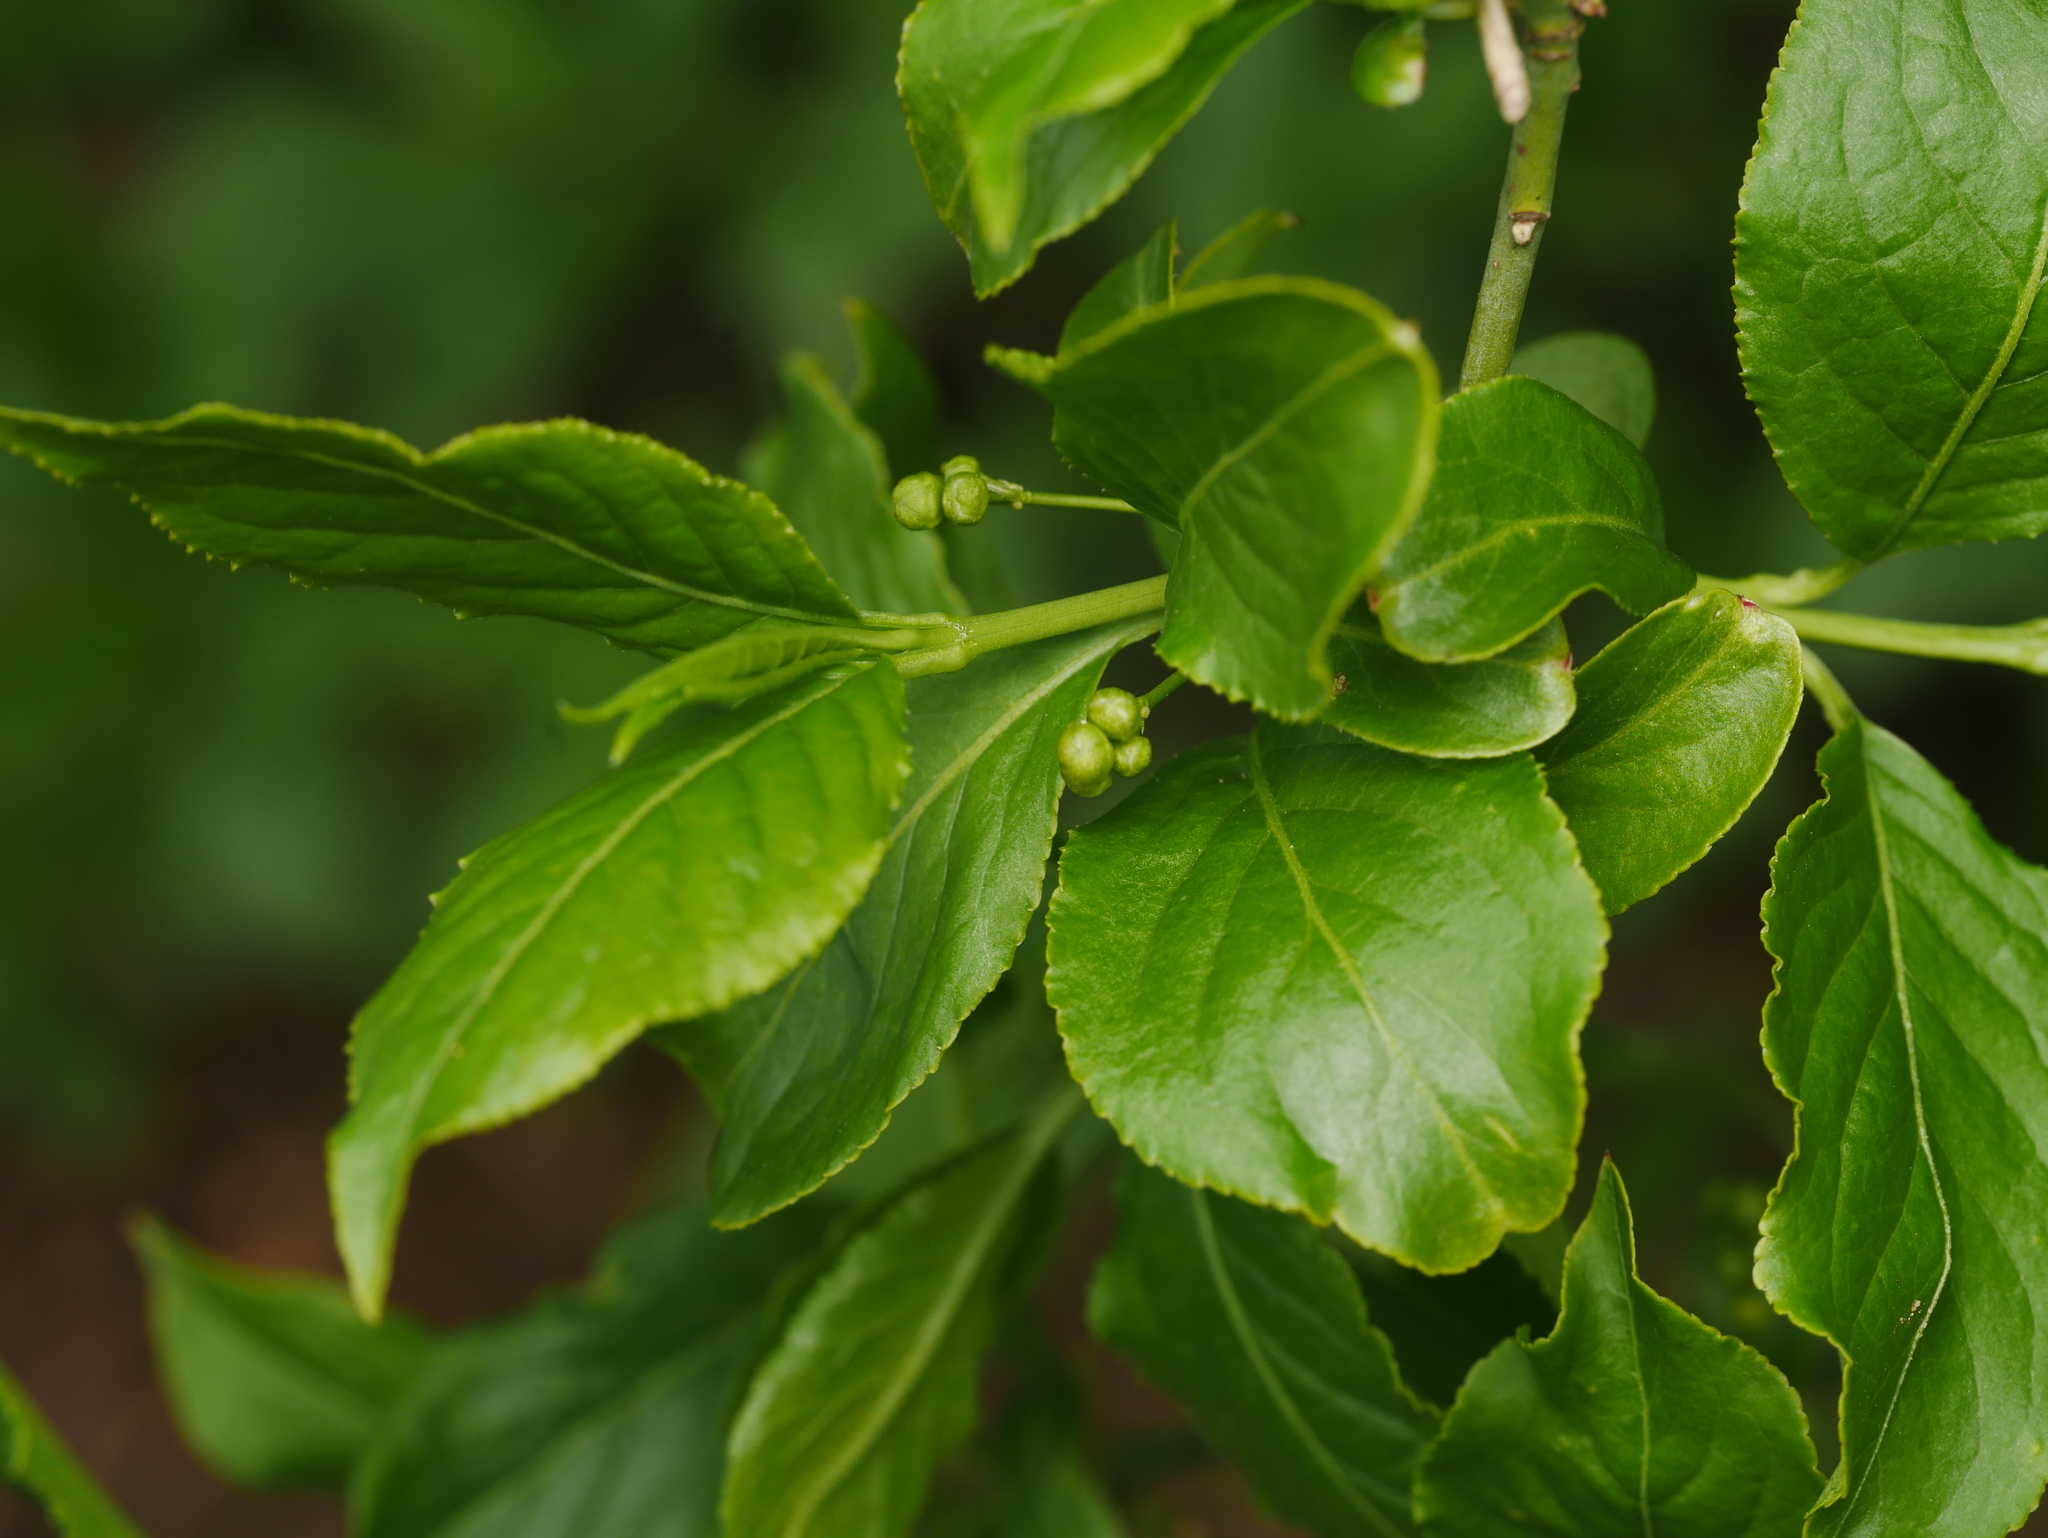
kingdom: Plantae
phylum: Tracheophyta
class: Magnoliopsida
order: Celastrales
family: Celastraceae
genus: Euonymus
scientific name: Euonymus europaeus
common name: Spindle
